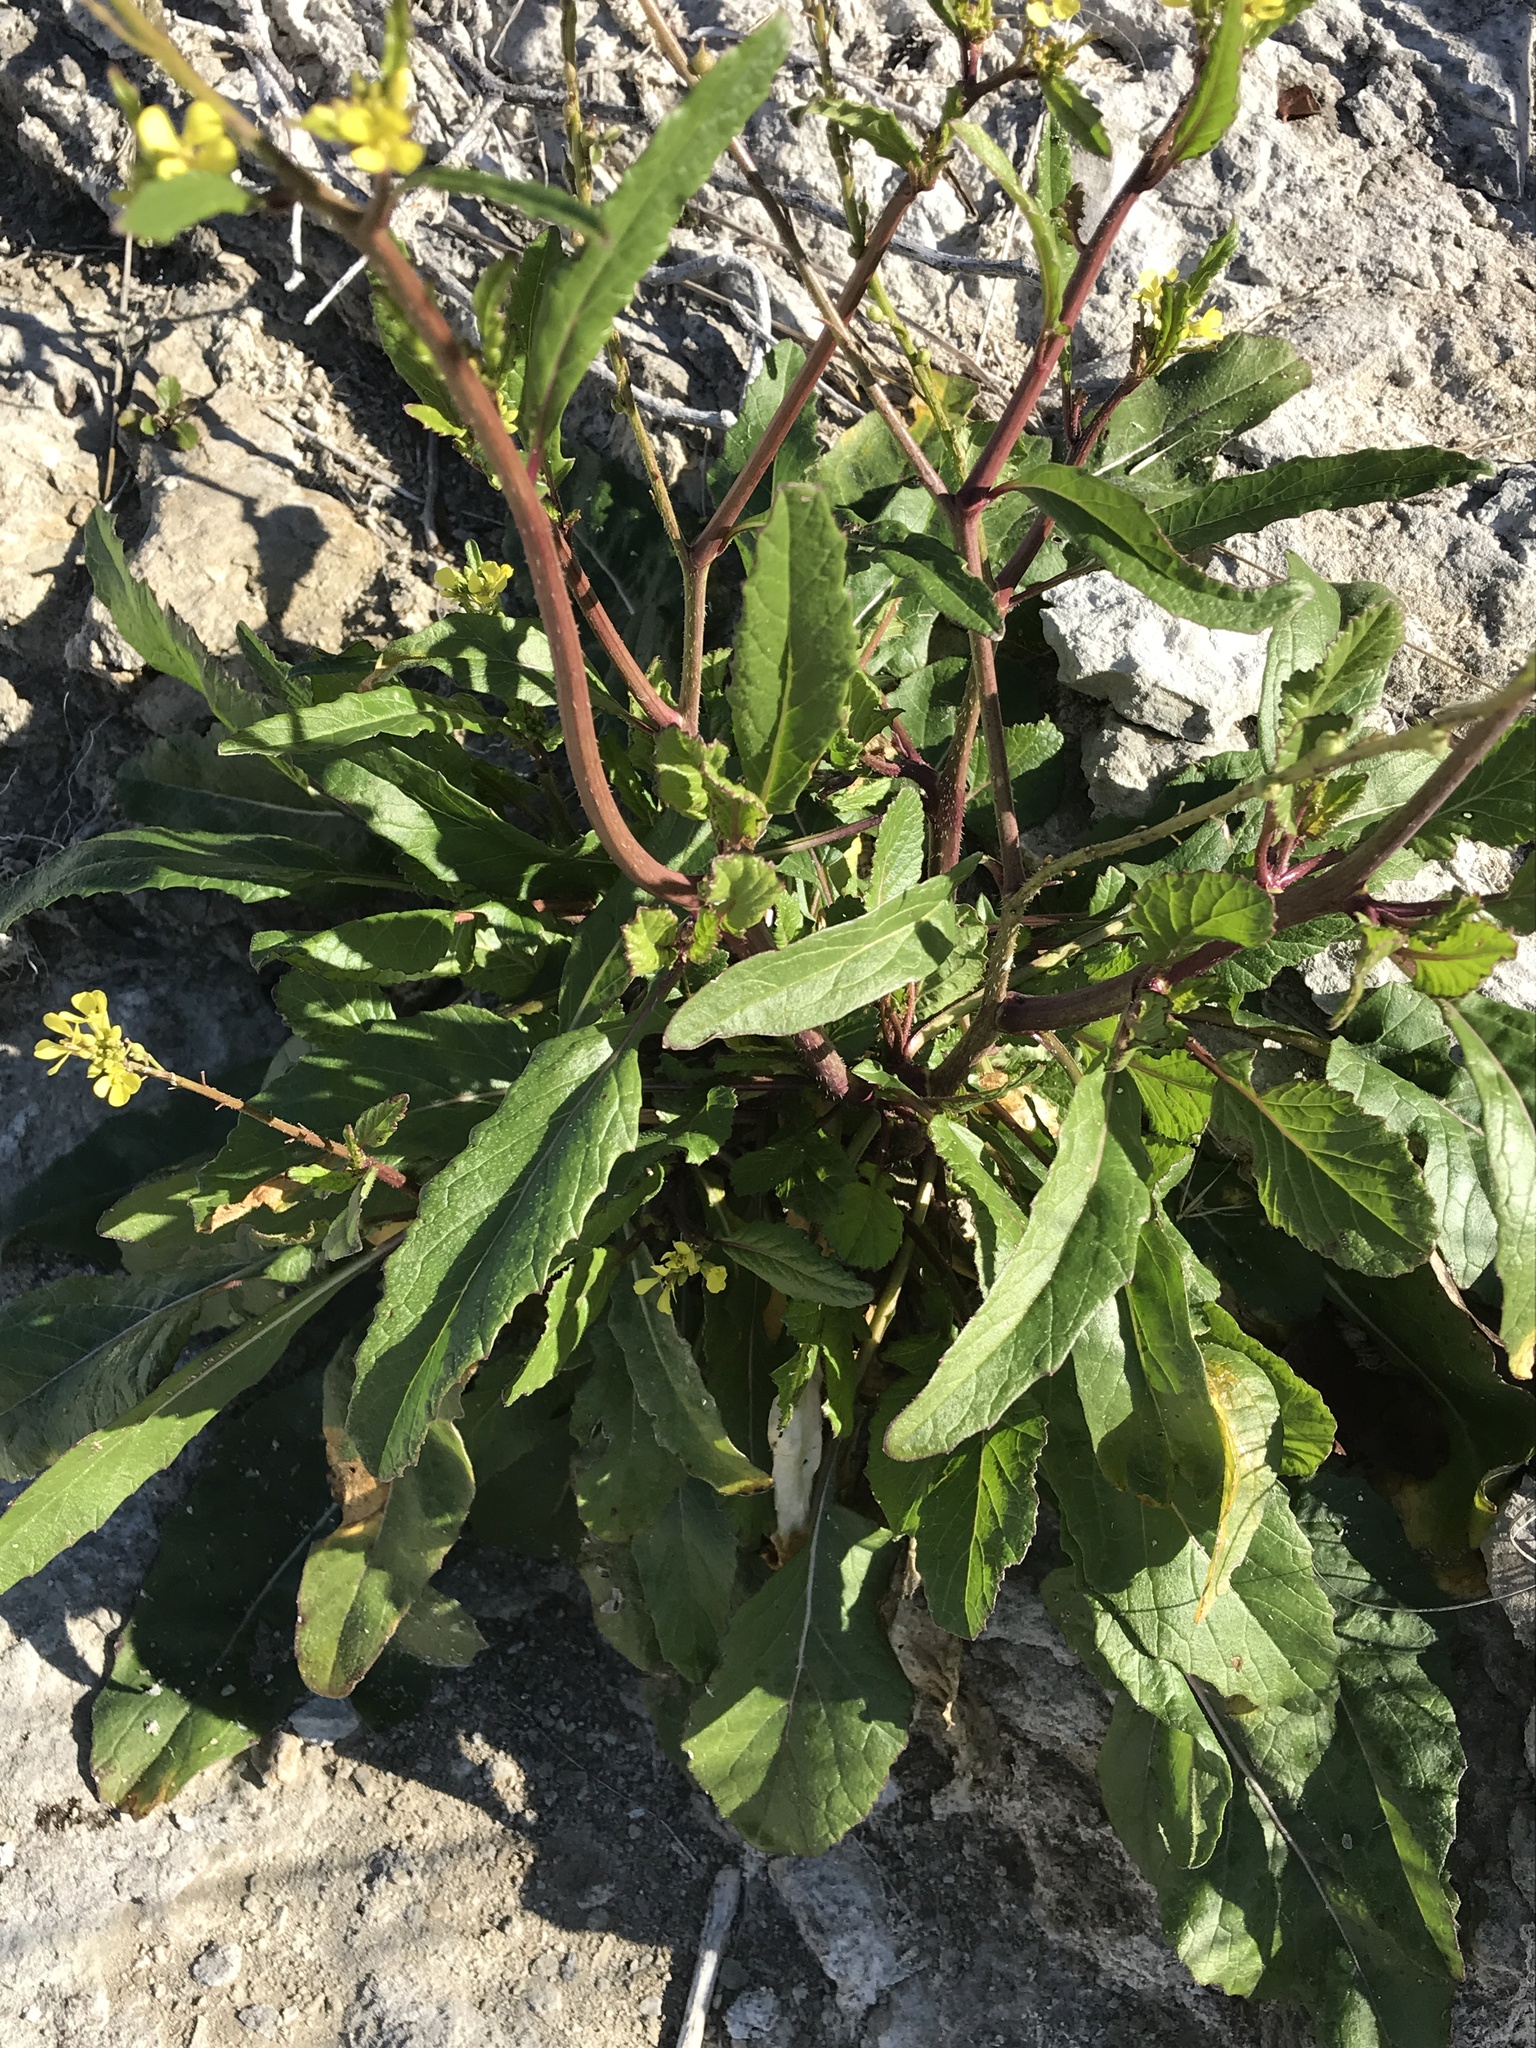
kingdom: Plantae
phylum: Tracheophyta
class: Magnoliopsida
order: Brassicales
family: Brassicaceae
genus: Rapistrum
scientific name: Rapistrum rugosum
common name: Annual bastardcabbage
